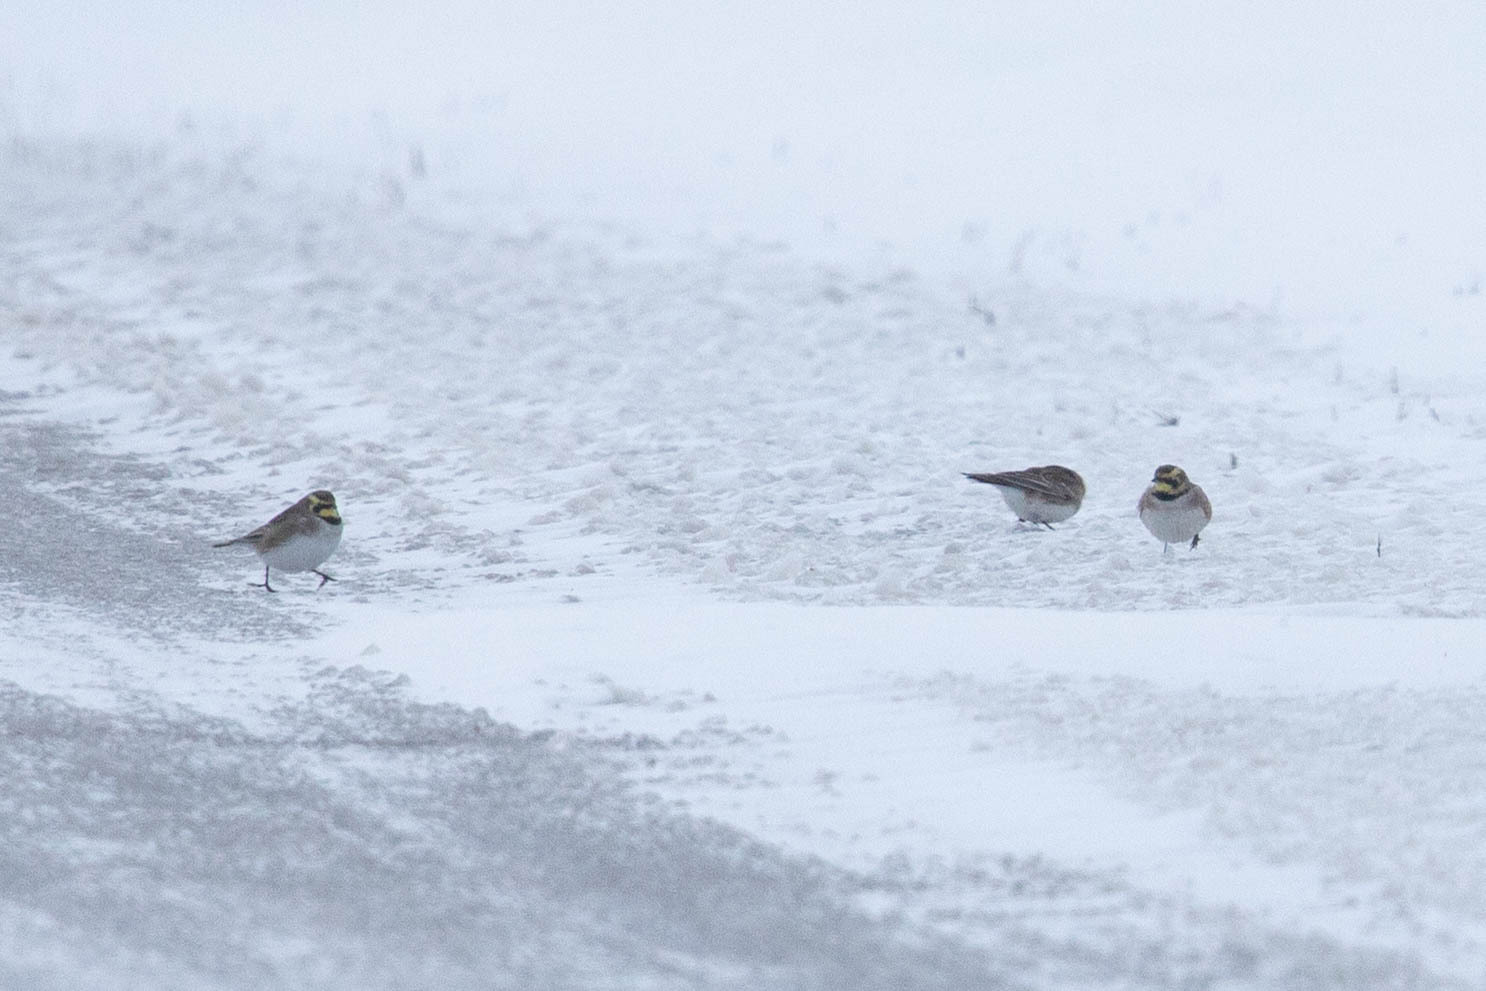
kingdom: Animalia
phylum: Chordata
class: Aves
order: Passeriformes
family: Alaudidae
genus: Eremophila
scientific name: Eremophila alpestris
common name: Horned lark
